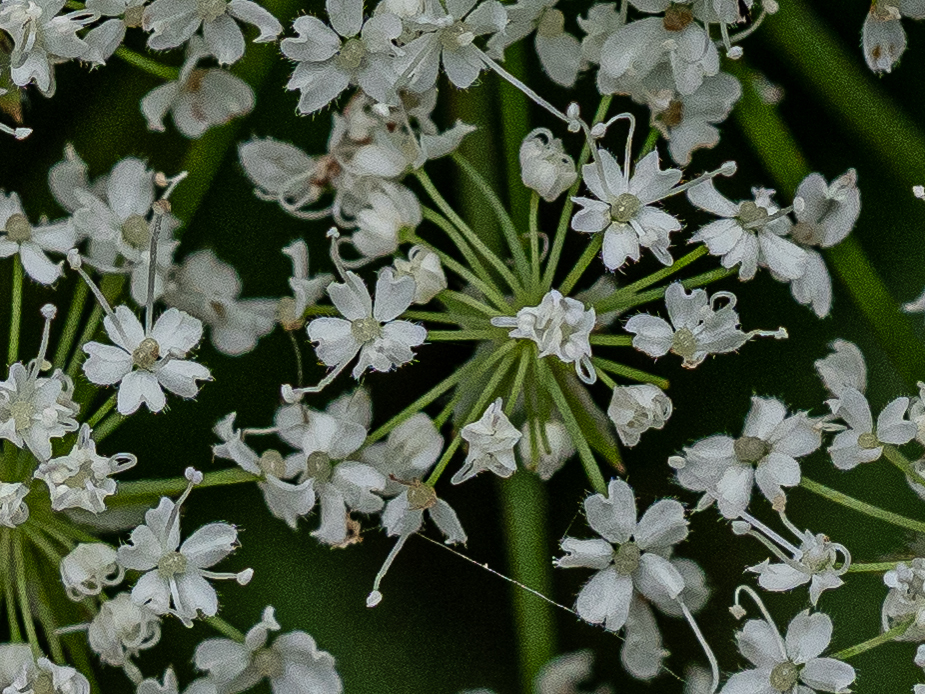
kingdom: Plantae
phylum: Tracheophyta
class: Magnoliopsida
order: Apiales
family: Apiaceae
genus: Chaerophyllum
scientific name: Chaerophyllum hirsutum
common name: Hairy chervil
